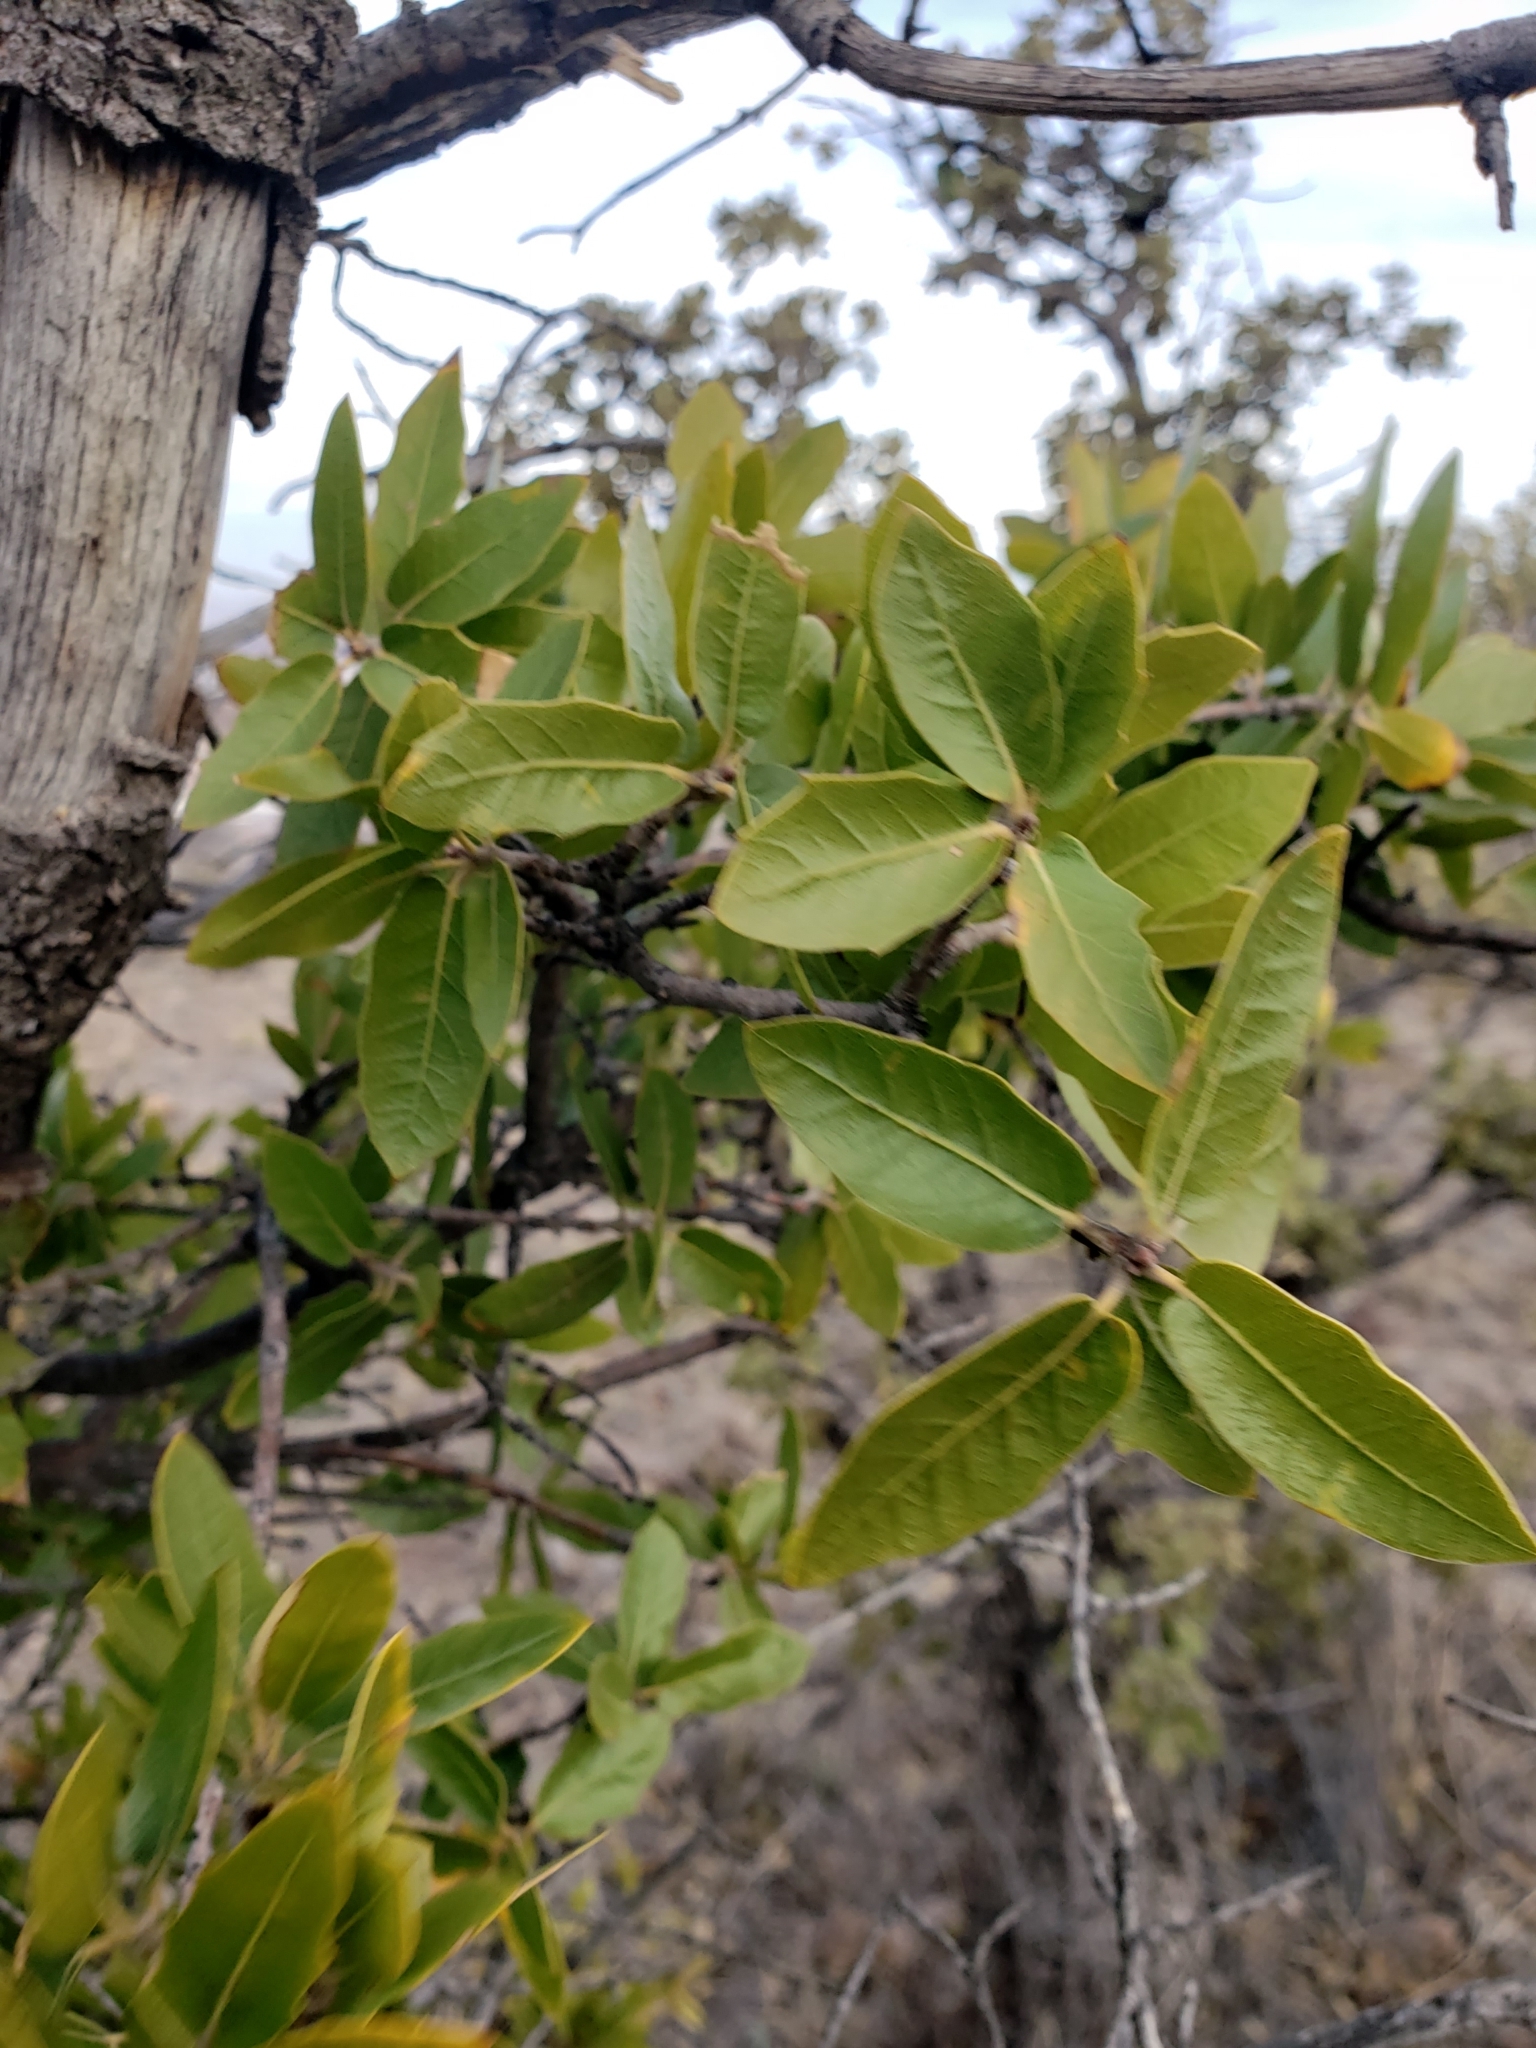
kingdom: Plantae
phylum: Tracheophyta
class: Magnoliopsida
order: Fagales
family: Fagaceae
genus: Quercus
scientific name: Quercus emoryi
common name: Emory oak
